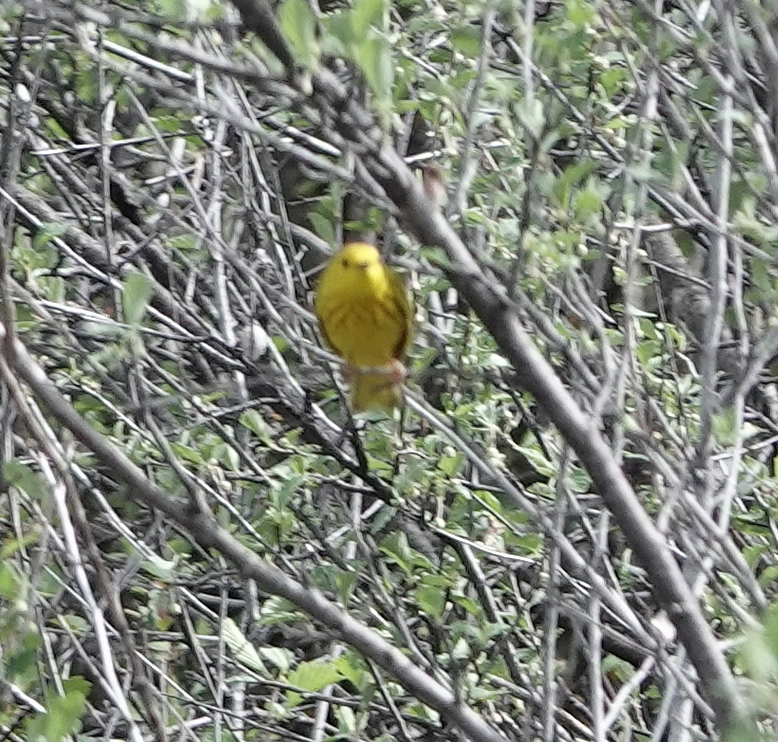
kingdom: Animalia
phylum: Chordata
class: Aves
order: Passeriformes
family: Parulidae
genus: Setophaga
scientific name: Setophaga petechia
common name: Yellow warbler
